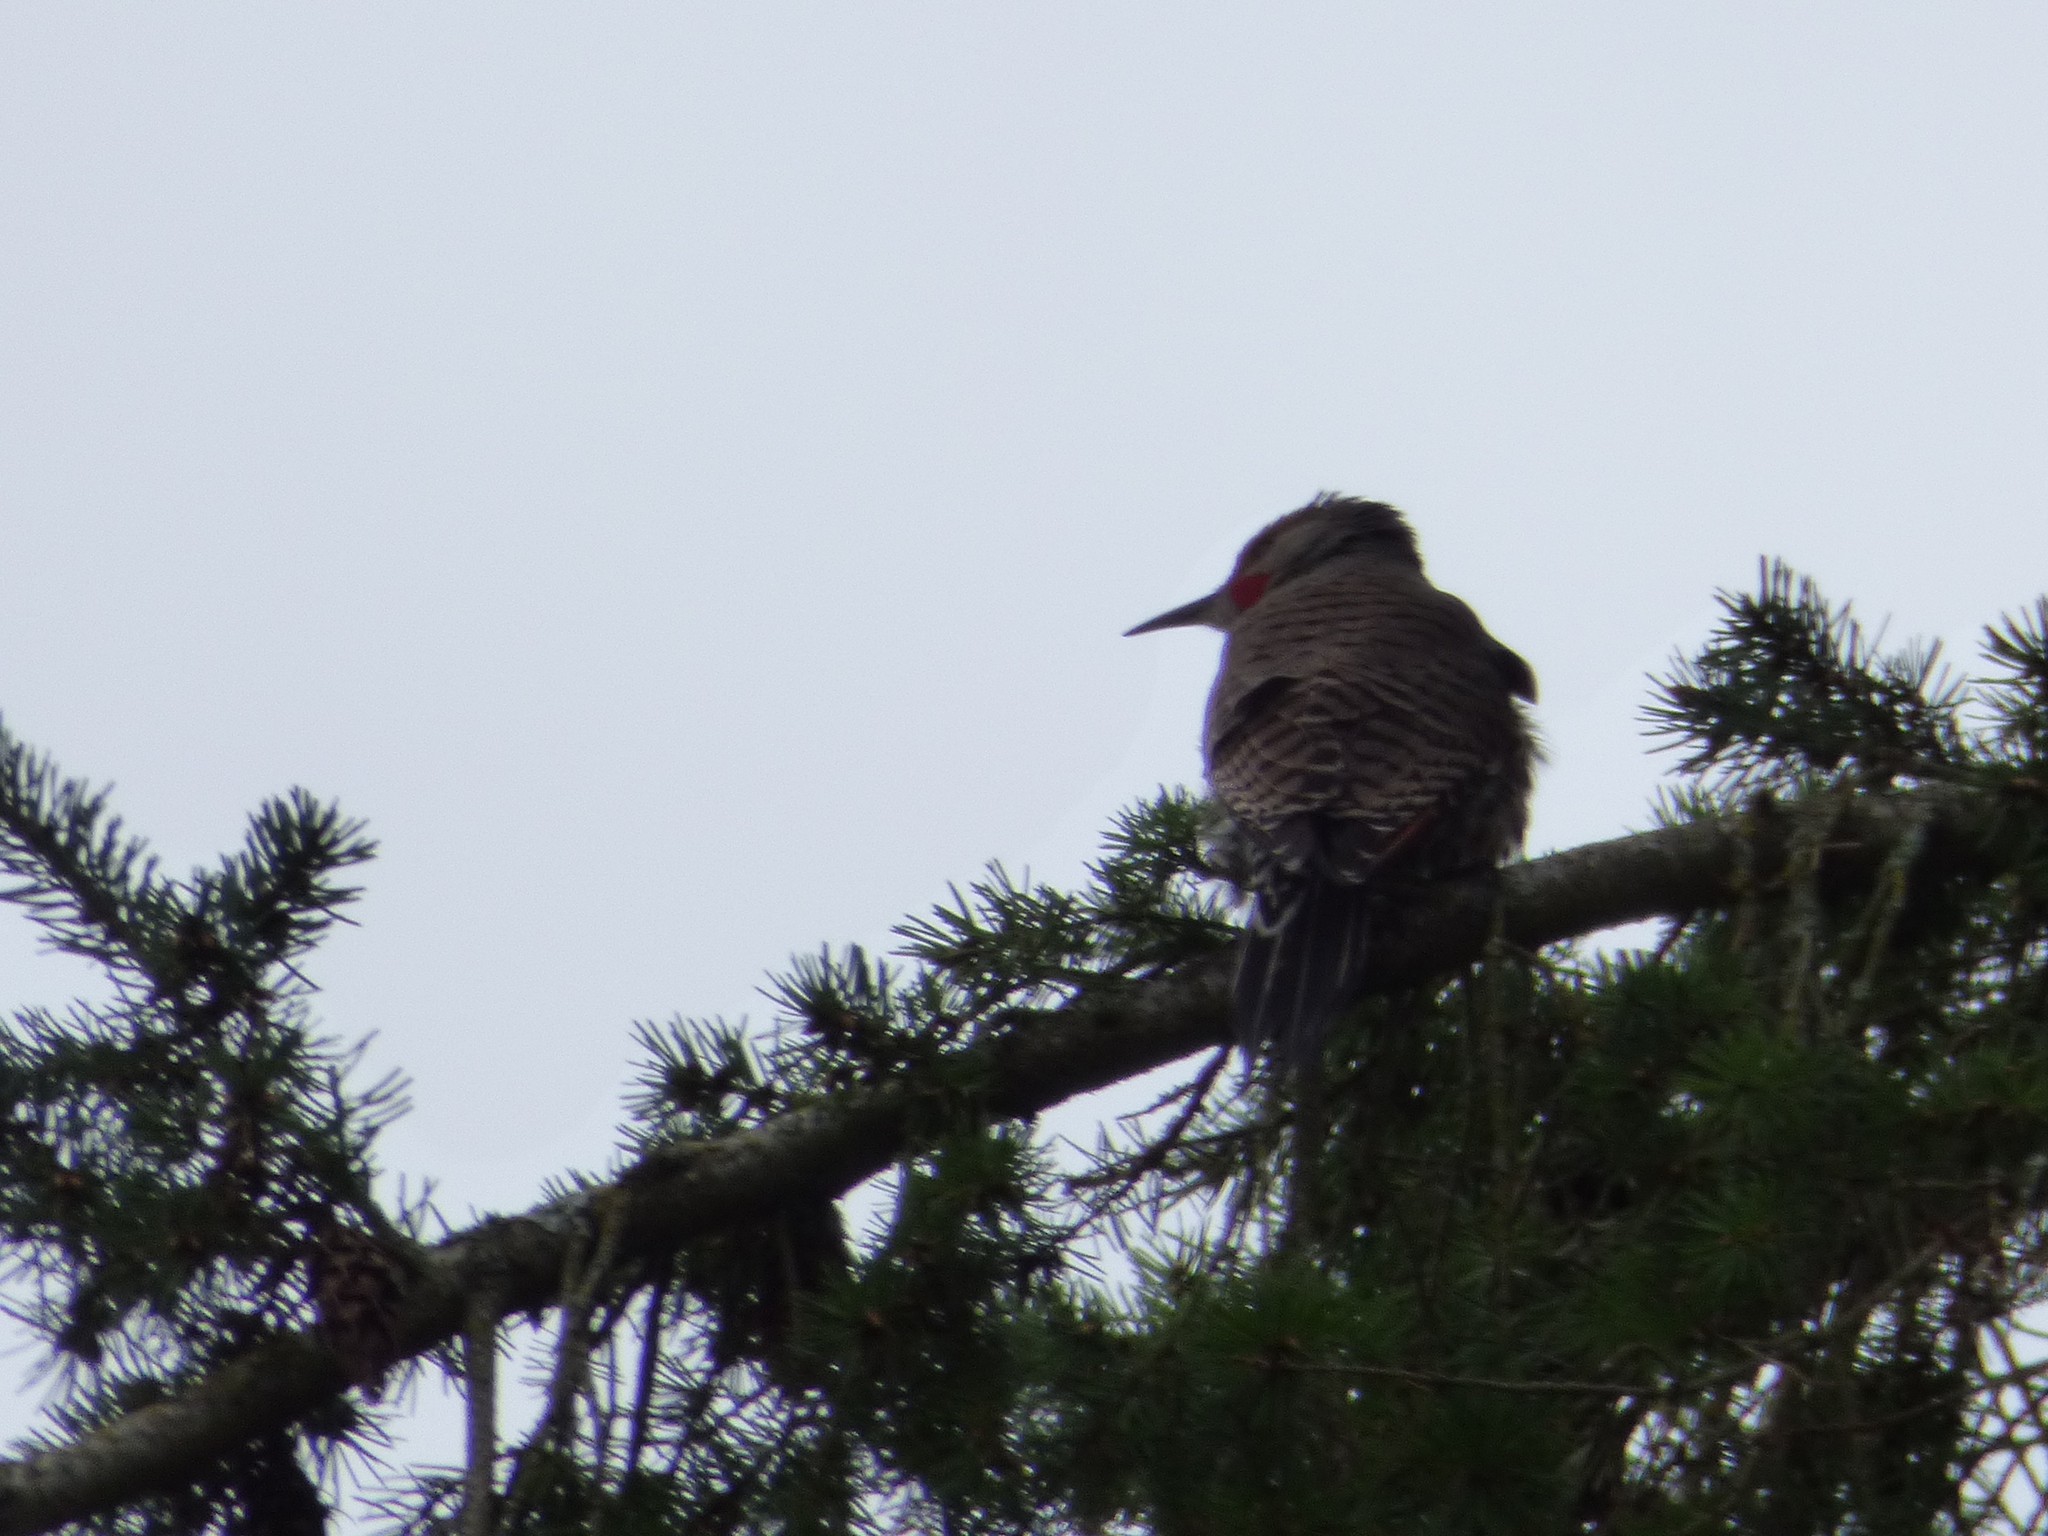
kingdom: Animalia
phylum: Chordata
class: Aves
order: Piciformes
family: Picidae
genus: Colaptes
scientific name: Colaptes auratus
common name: Northern flicker
